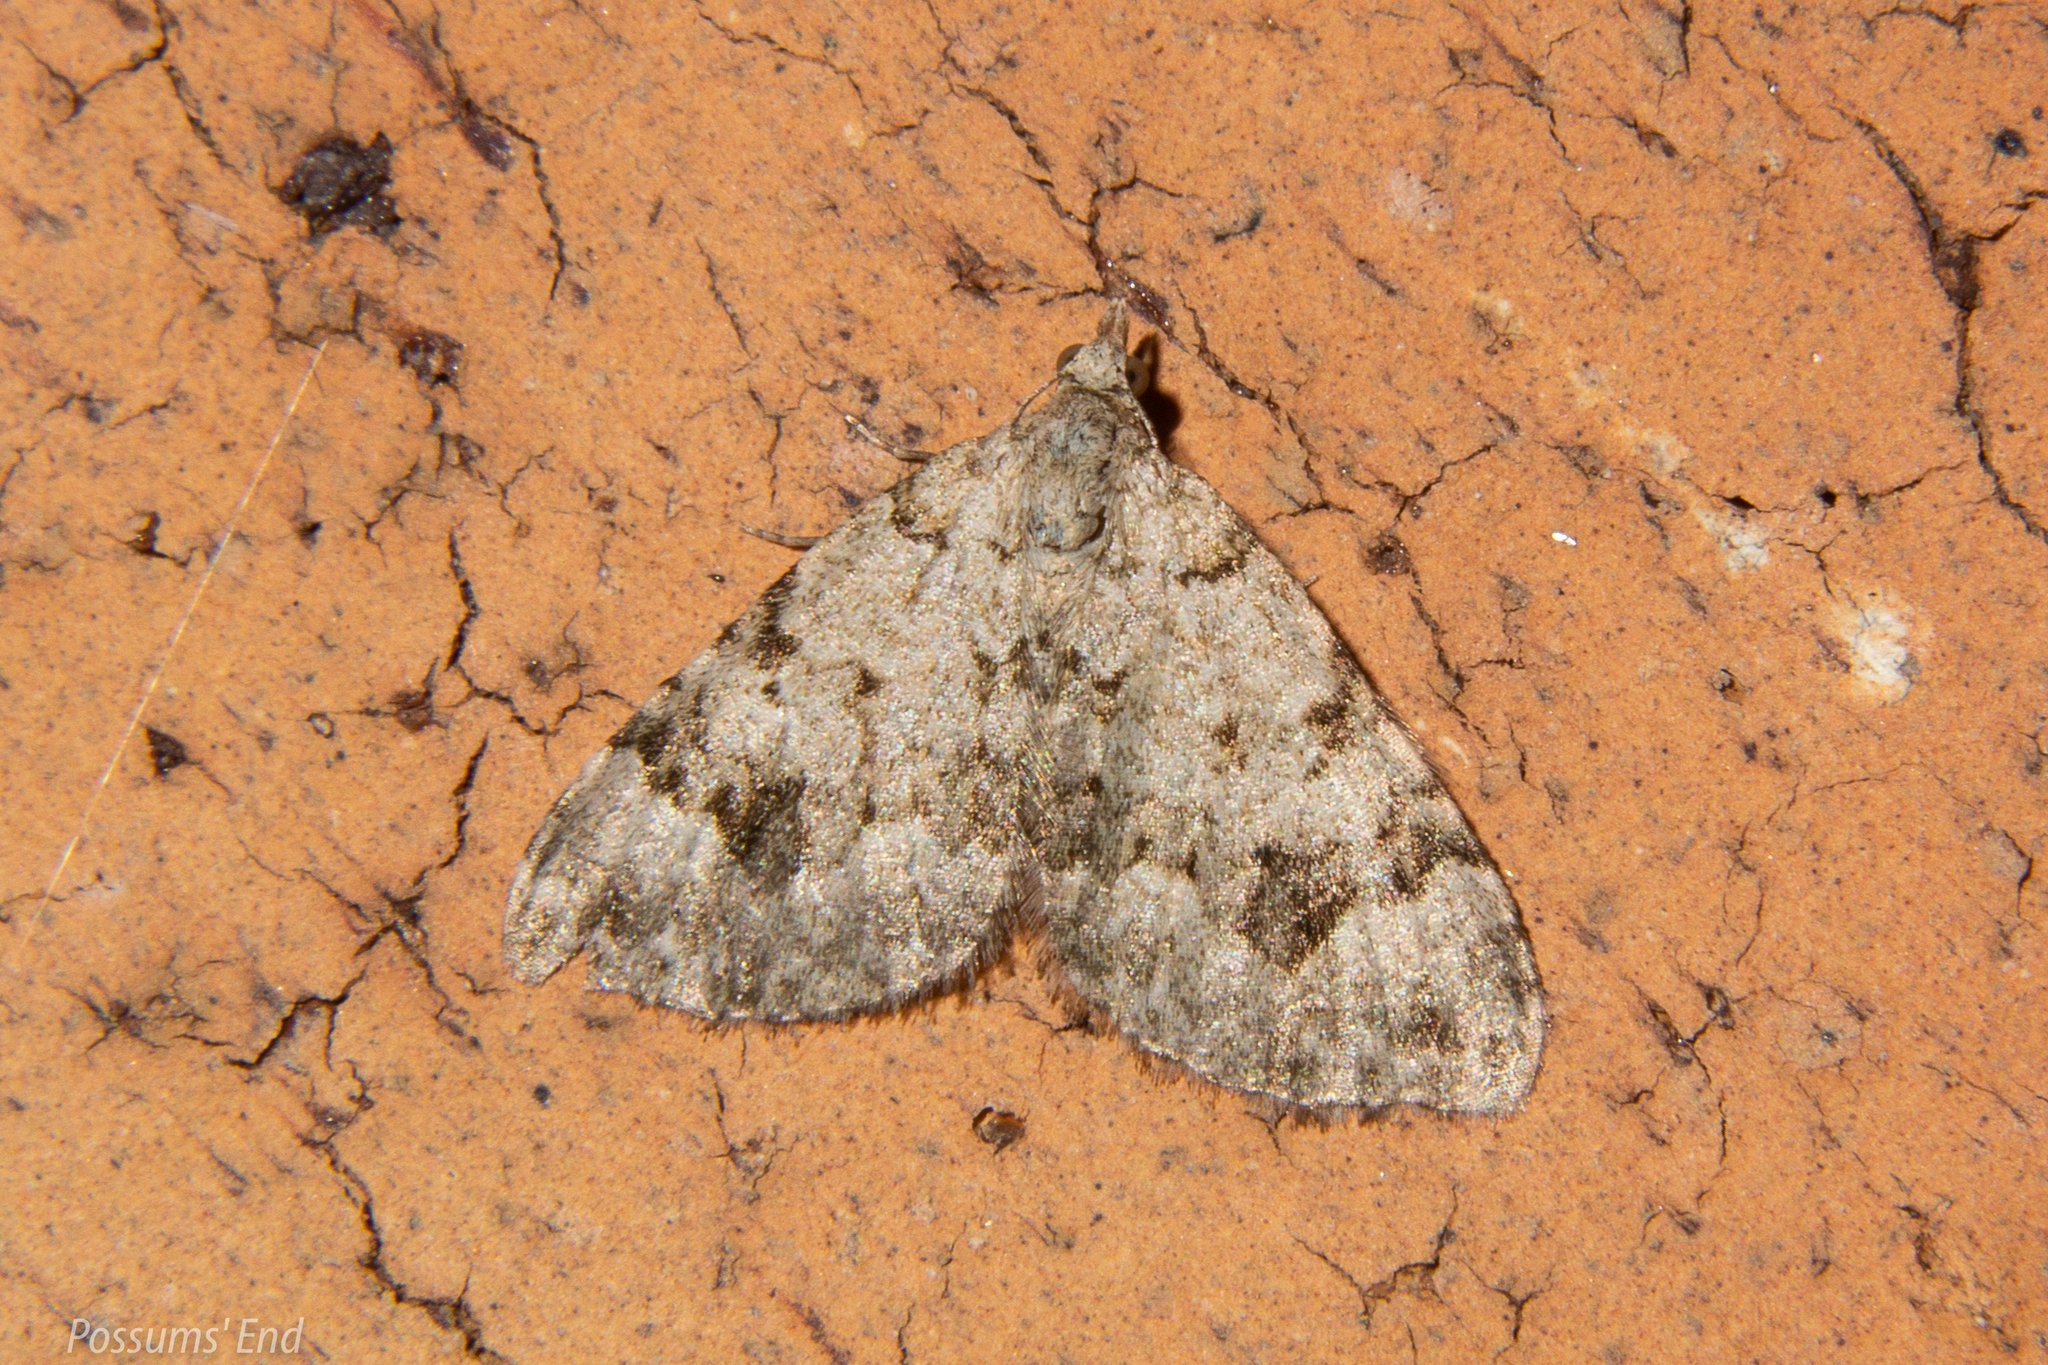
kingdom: Animalia
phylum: Arthropoda
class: Insecta
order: Lepidoptera
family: Geometridae
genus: Helastia
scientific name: Helastia cinerearia
